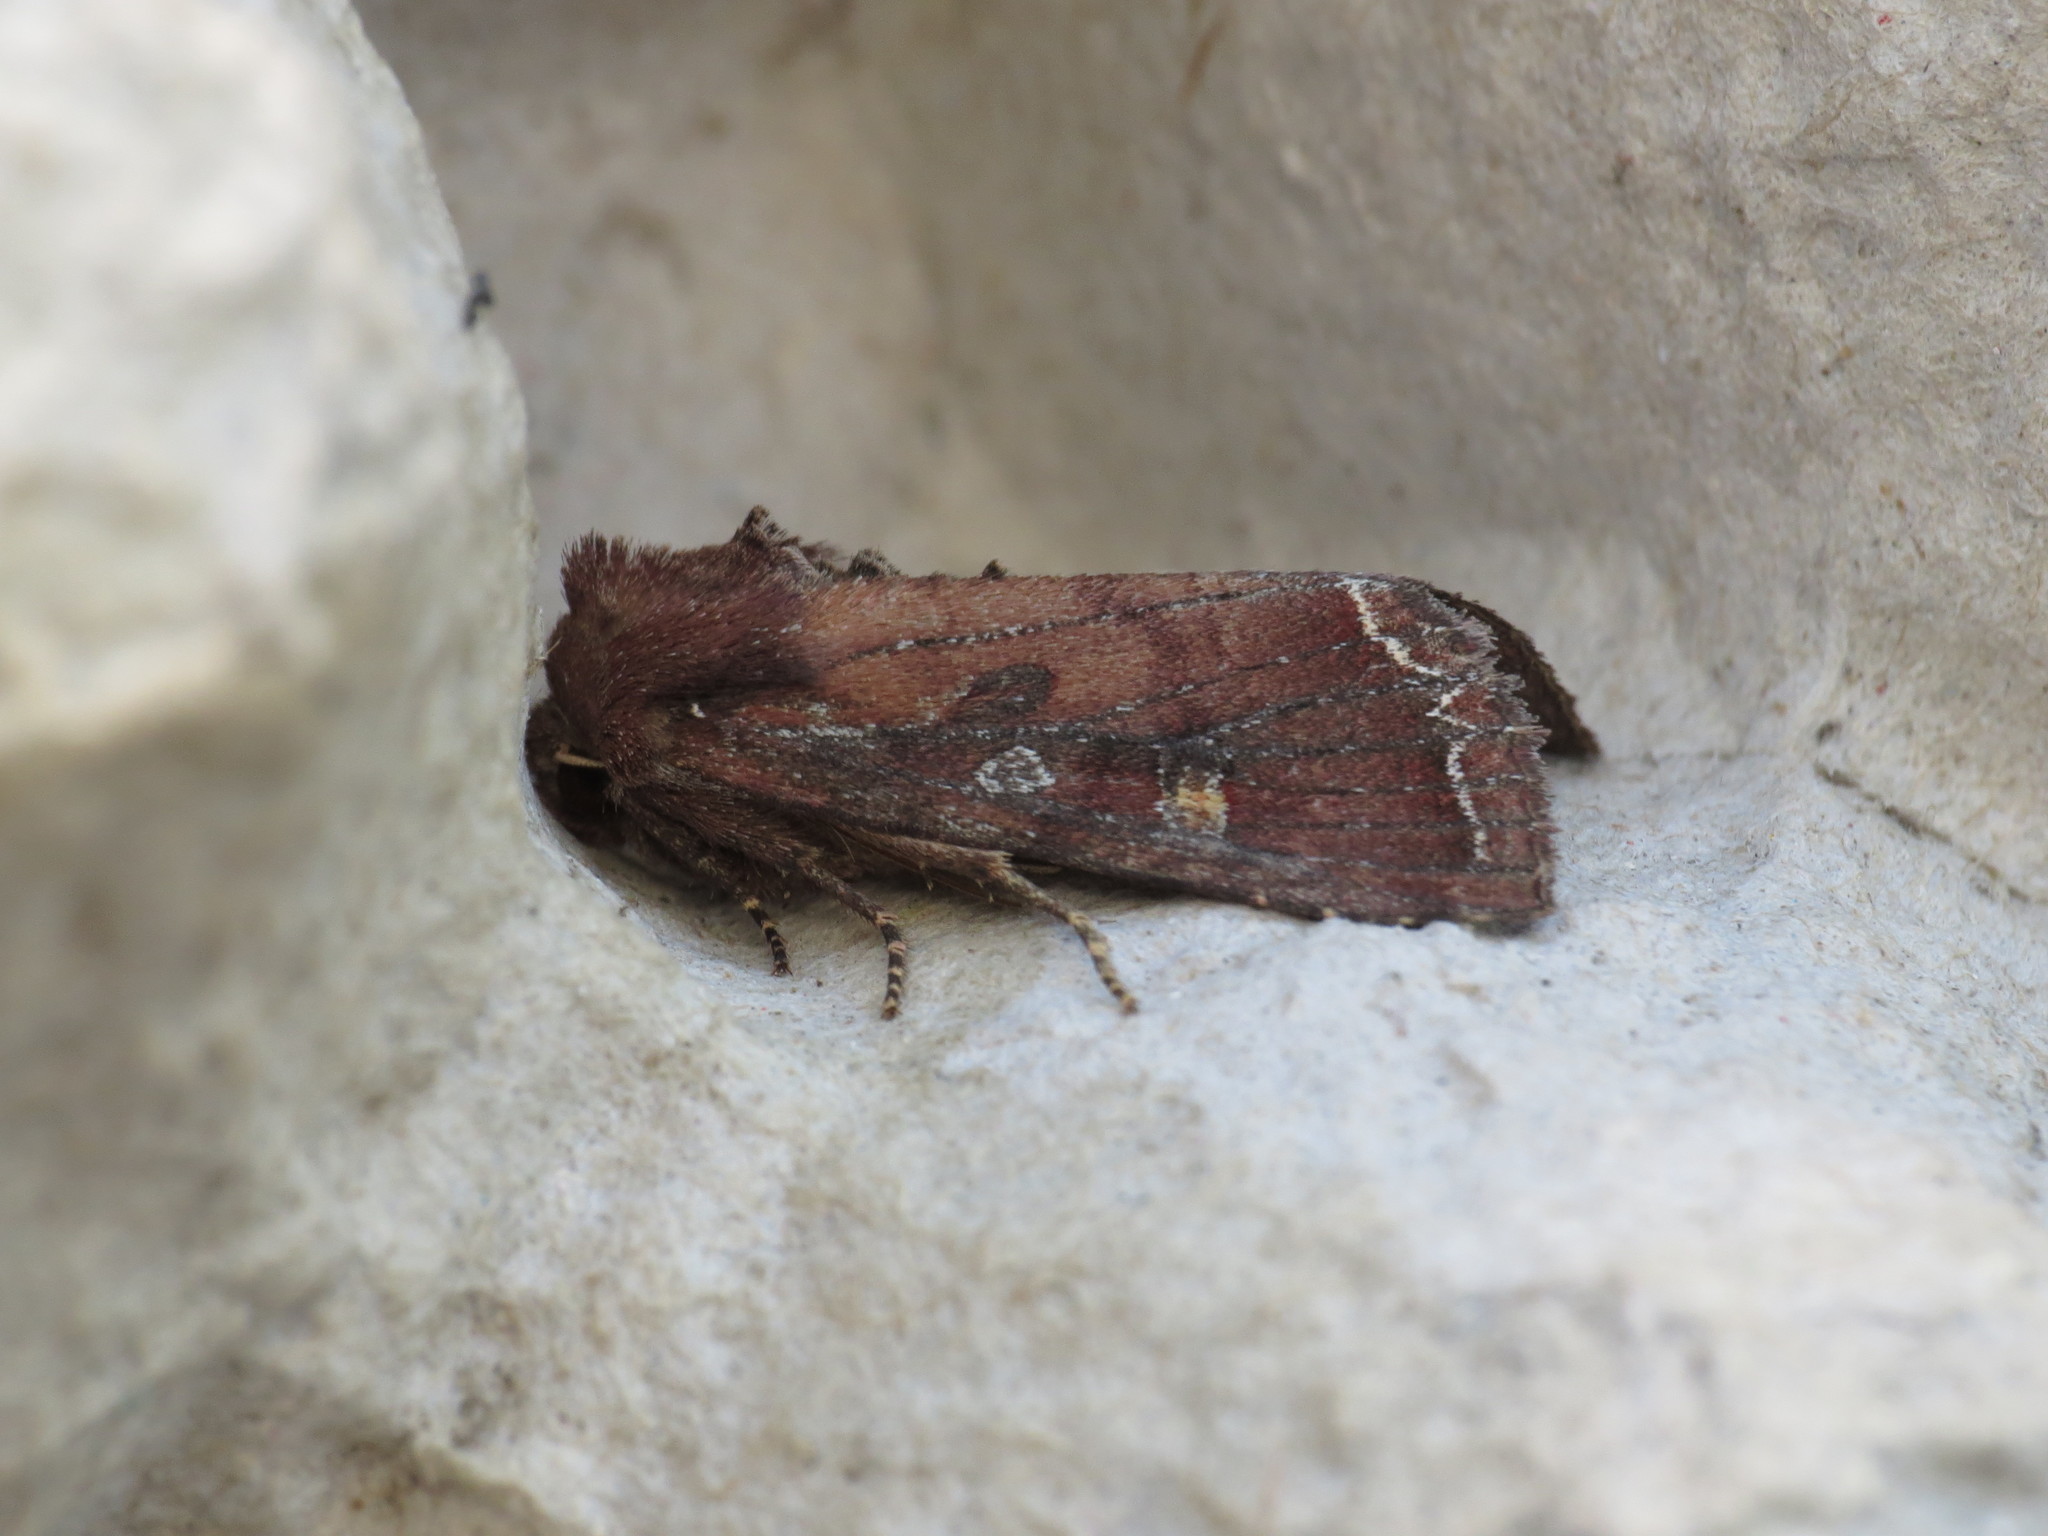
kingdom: Animalia
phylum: Arthropoda
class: Insecta
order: Lepidoptera
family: Noctuidae
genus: Lacanobia
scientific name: Lacanobia oleracea
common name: Bright-line brown-eye
